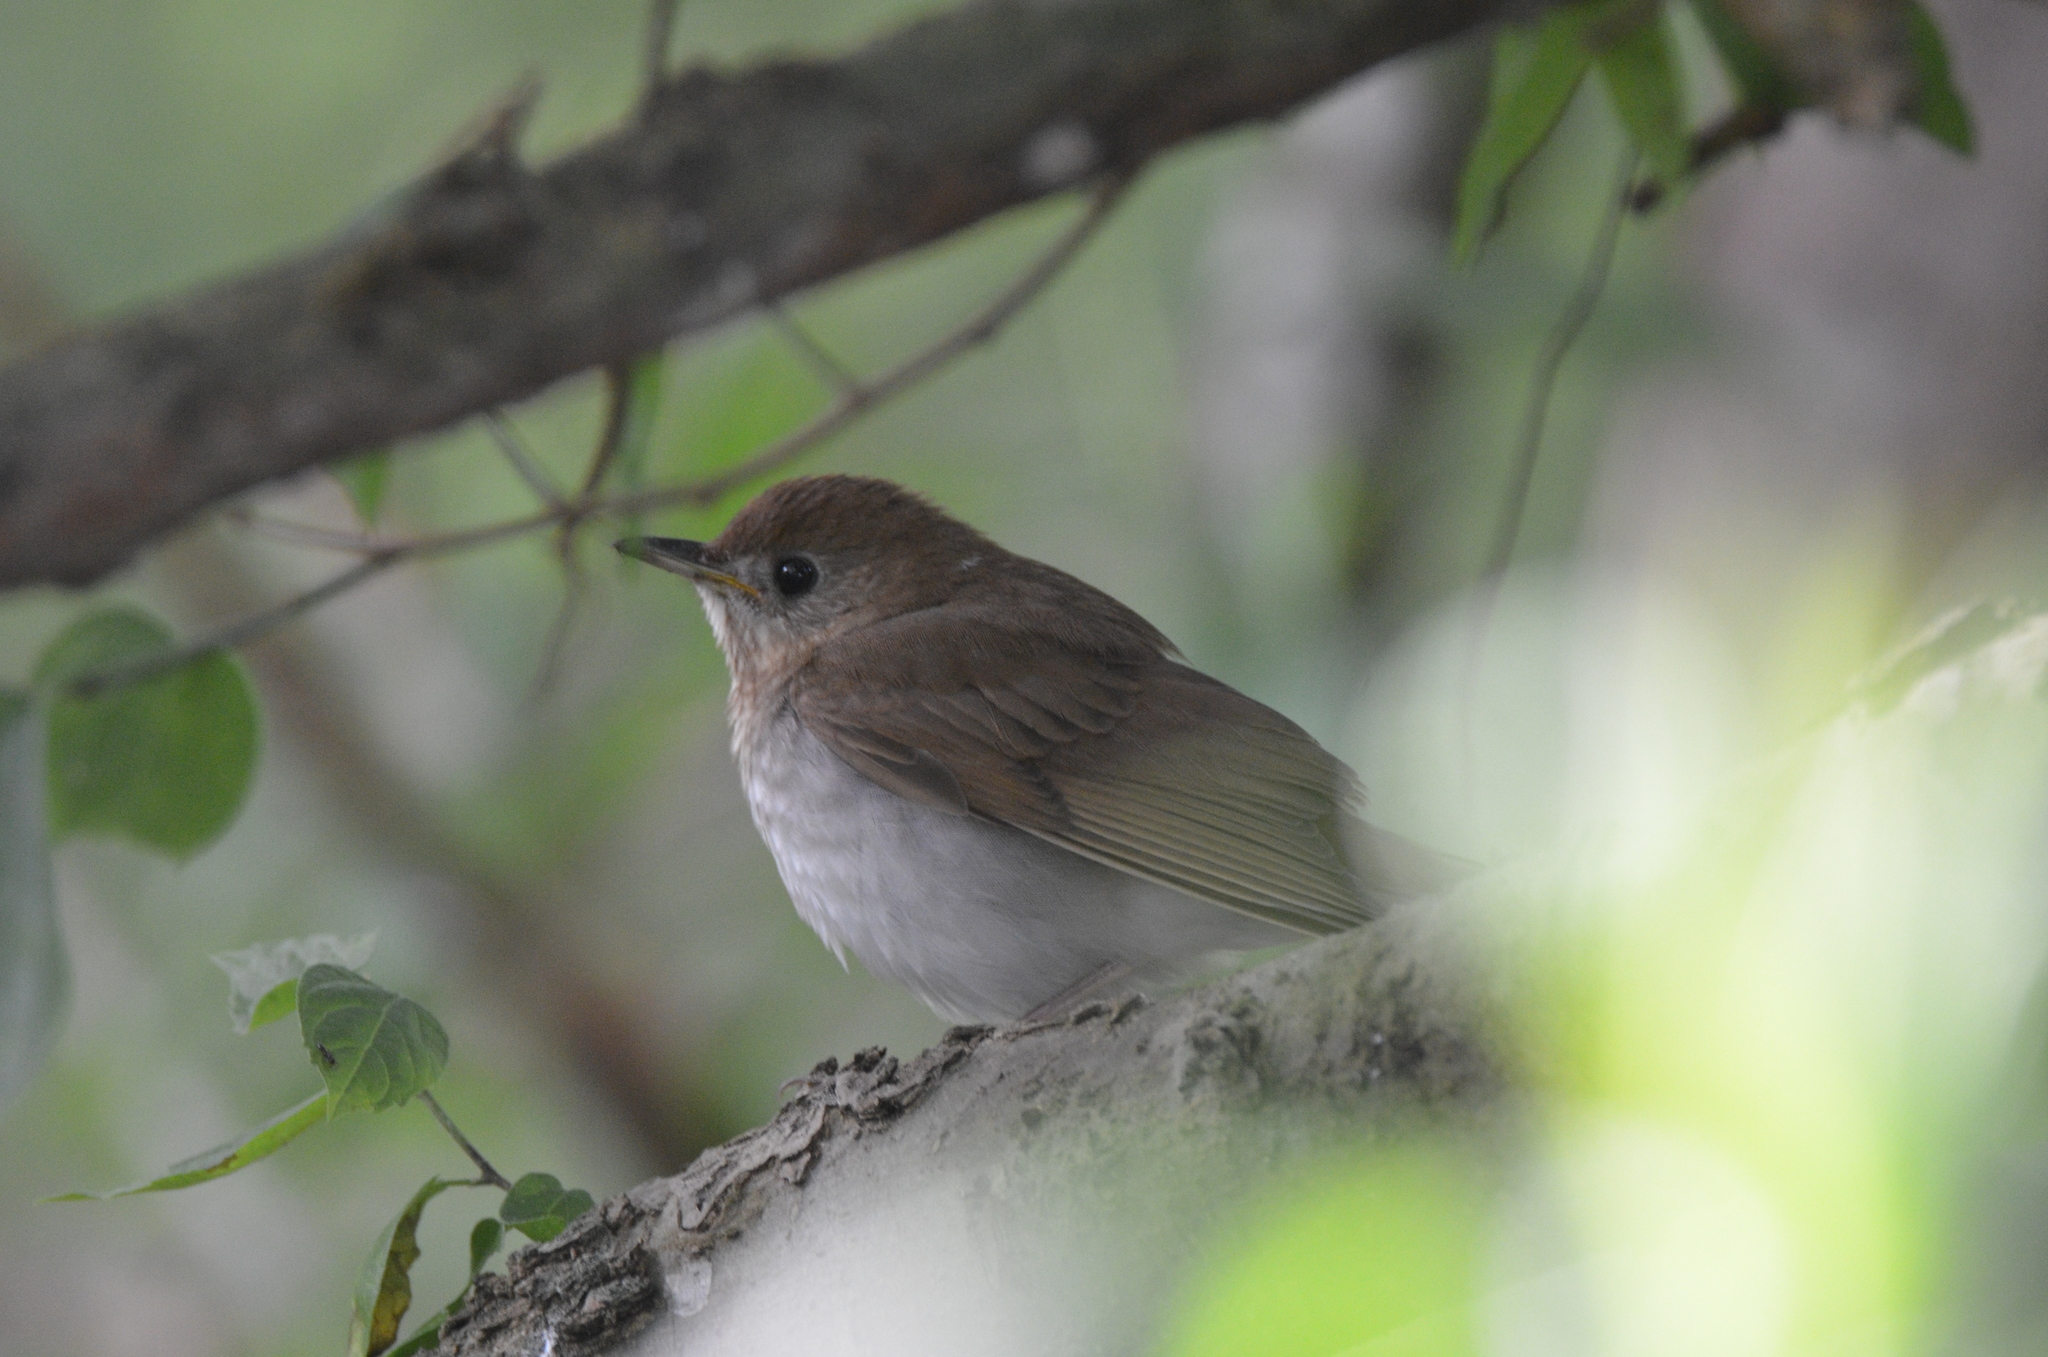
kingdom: Animalia
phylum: Chordata
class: Aves
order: Passeriformes
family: Turdidae
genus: Catharus
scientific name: Catharus fuscescens
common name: Veery
